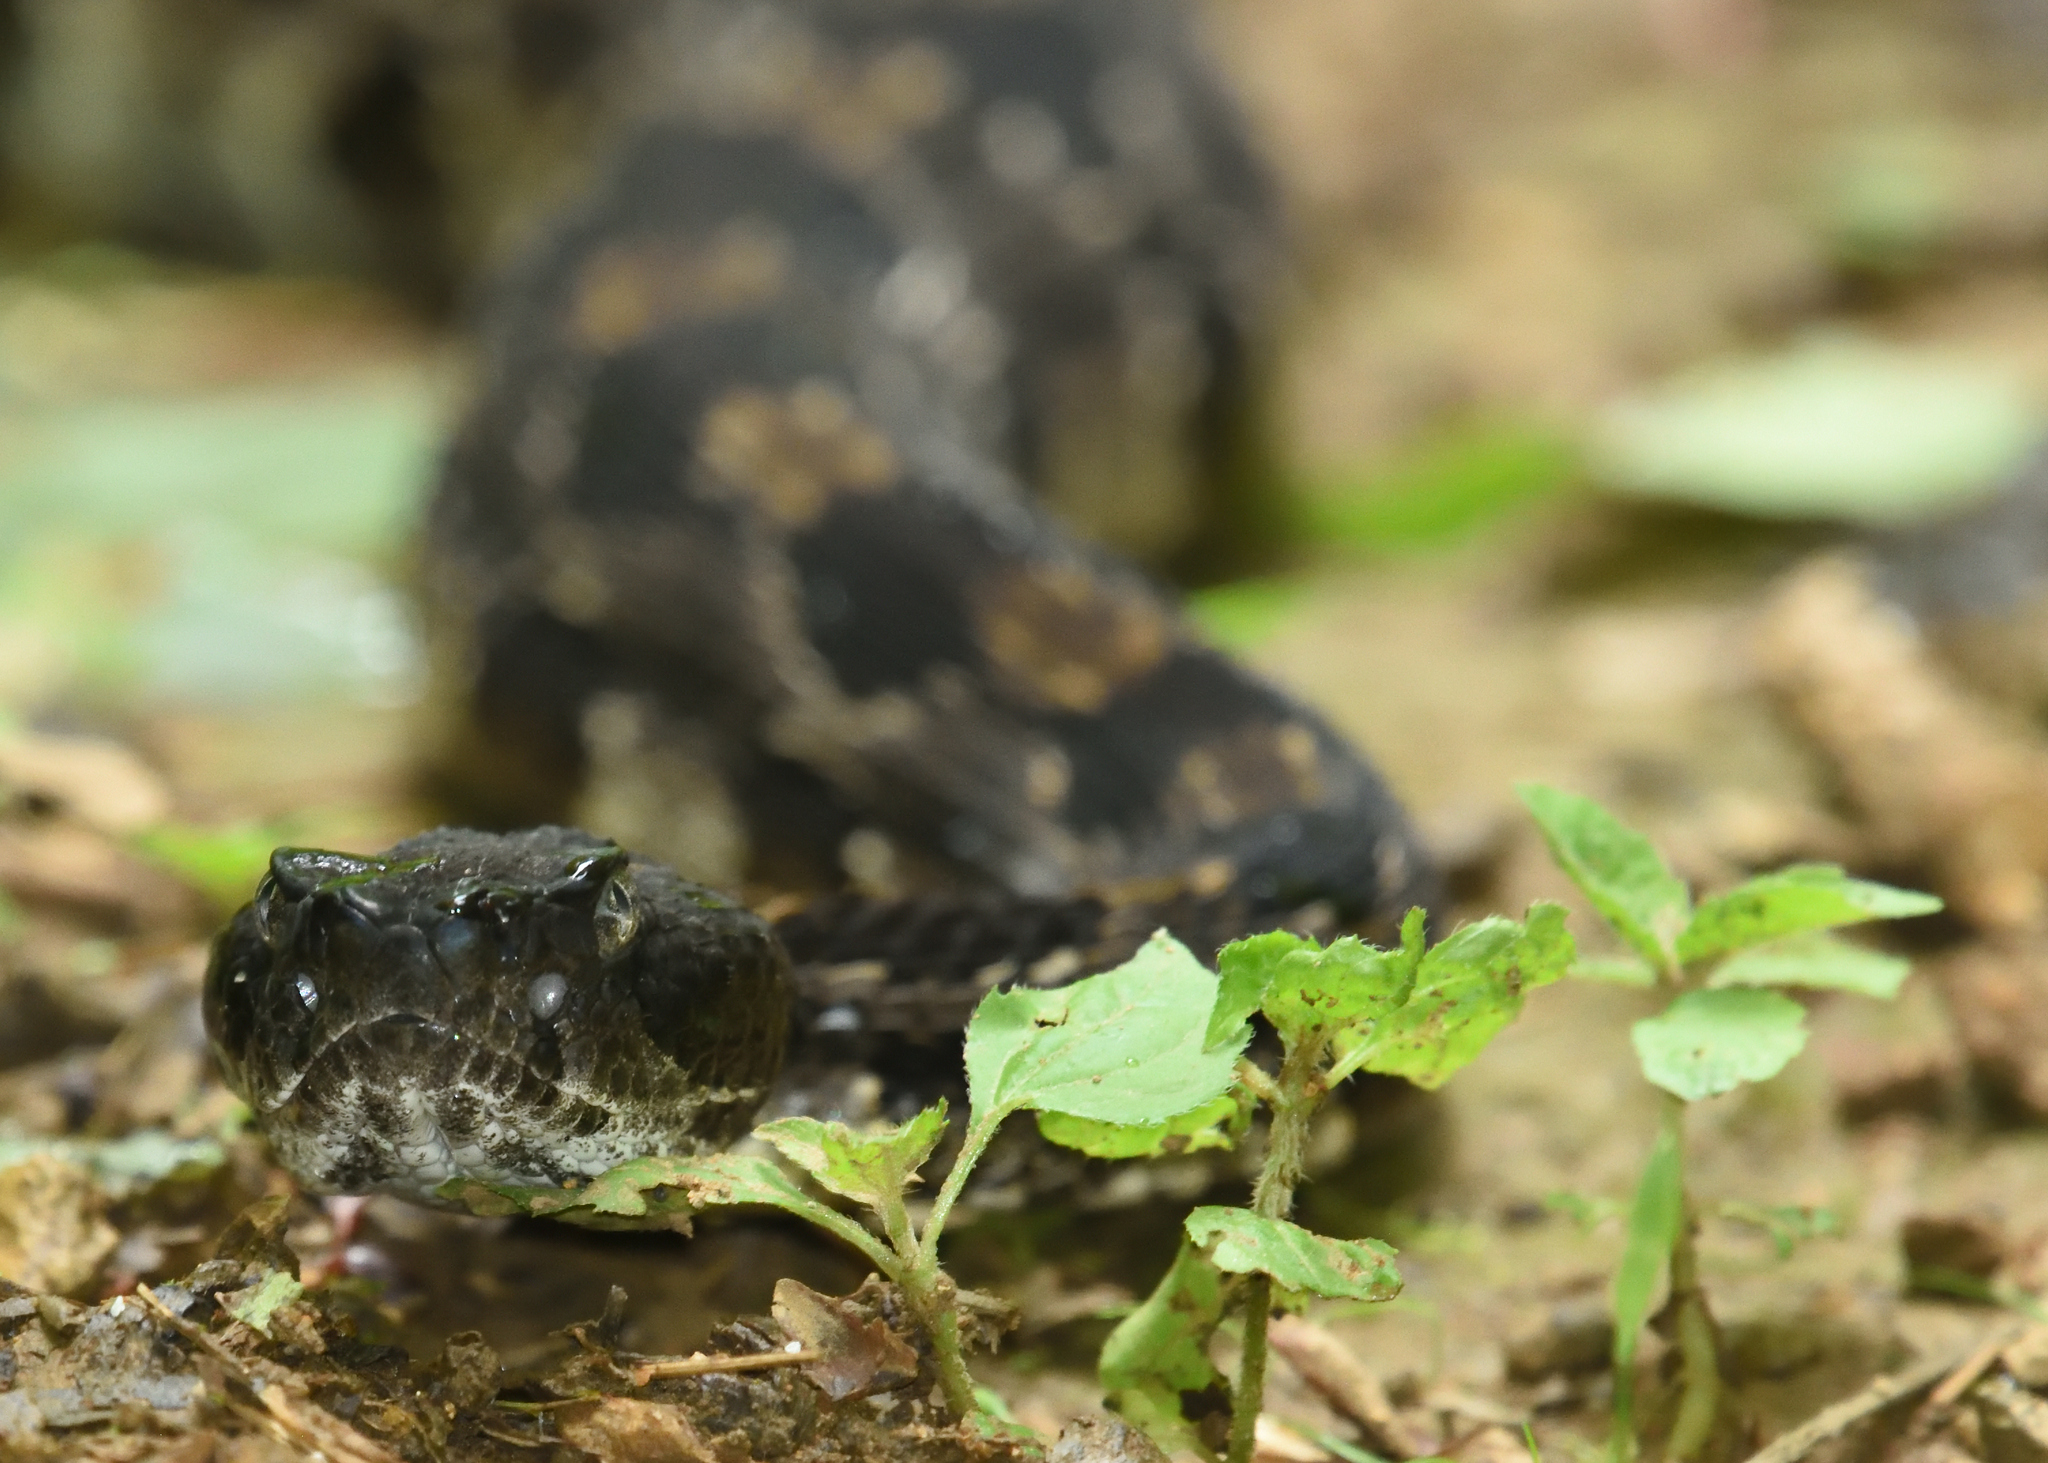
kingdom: Animalia
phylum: Chordata
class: Squamata
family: Viperidae
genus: Crotalus
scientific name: Crotalus horridus
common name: Timber rattlesnake
